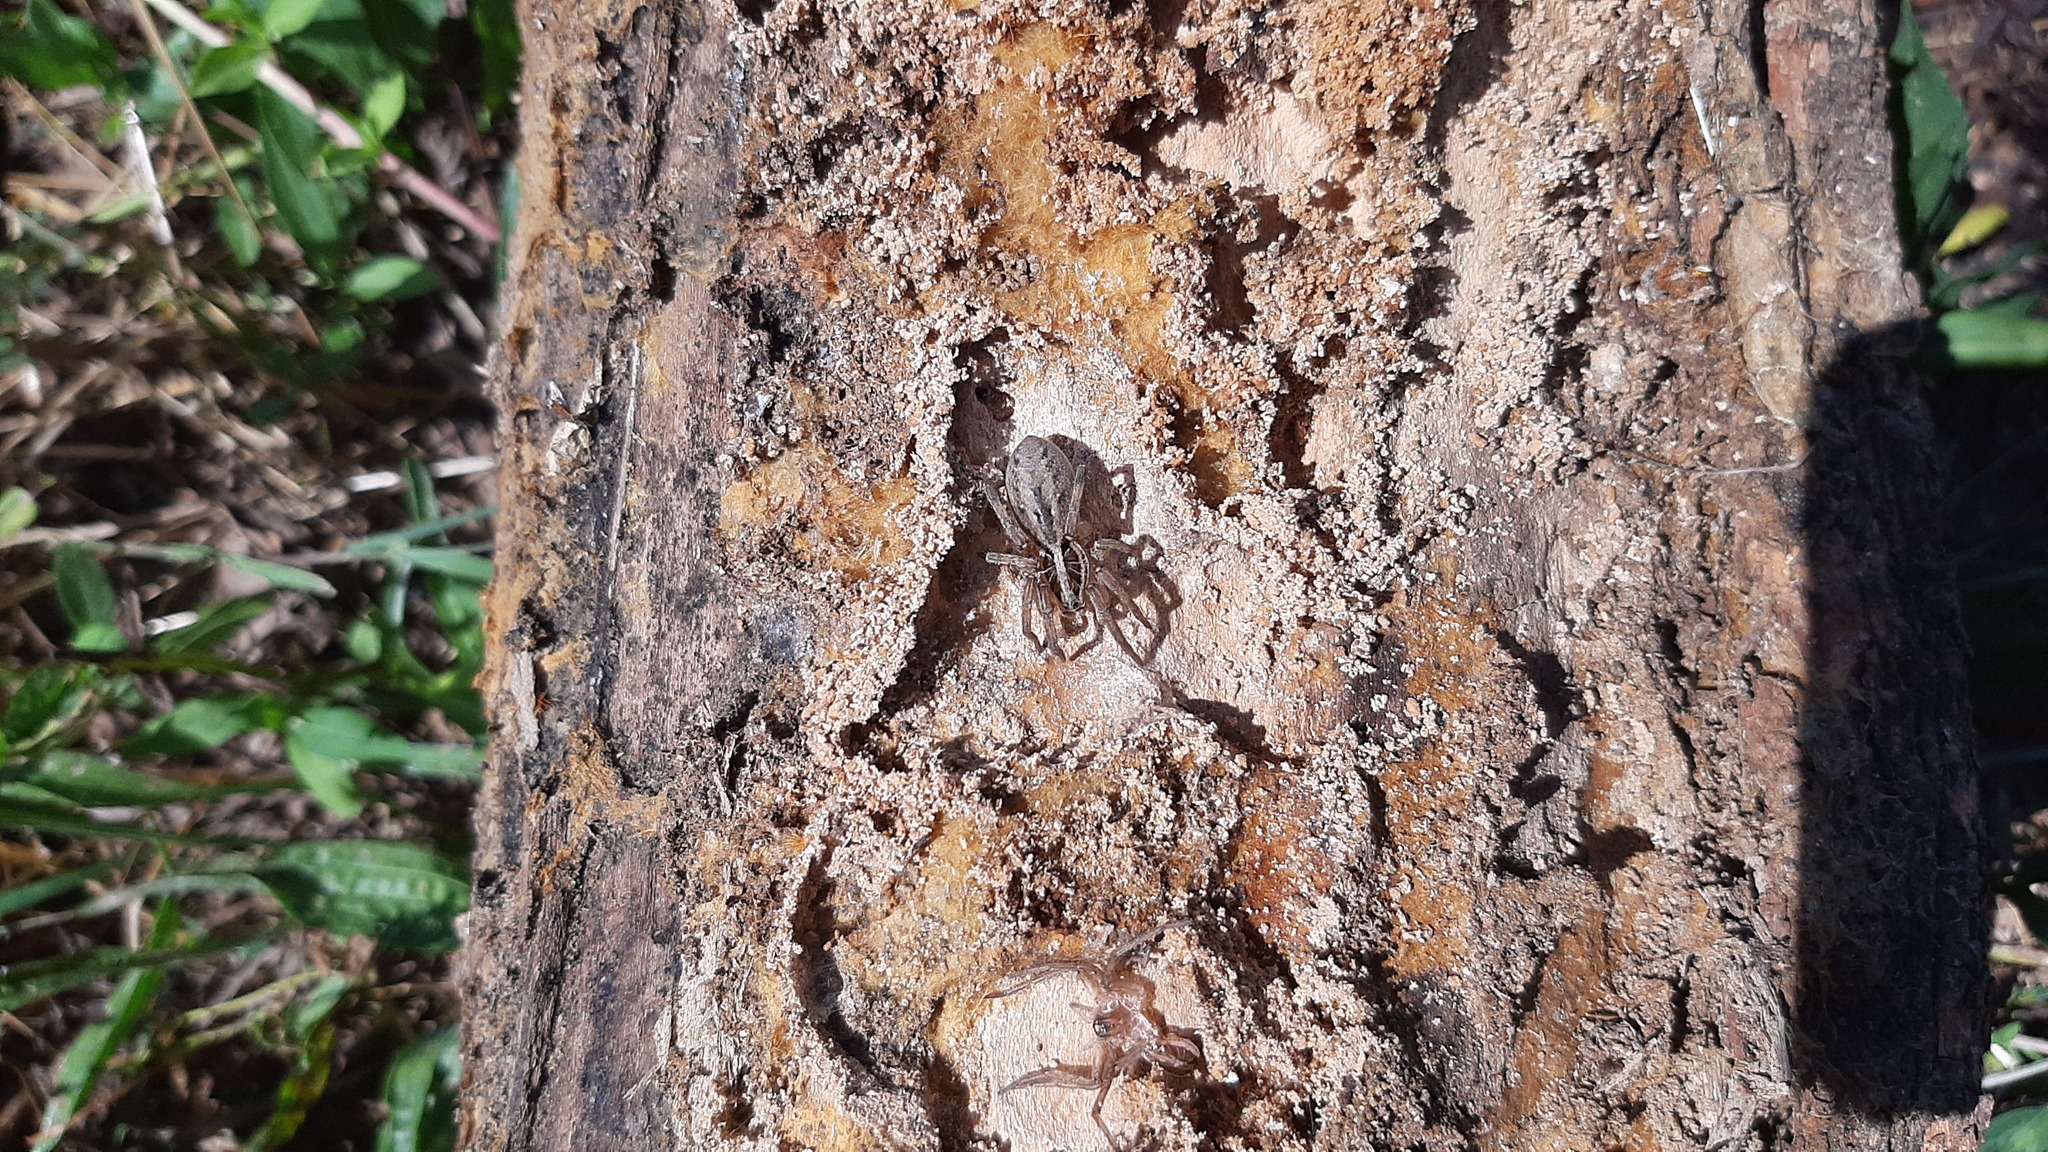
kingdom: Animalia
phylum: Arthropoda
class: Arachnida
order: Araneae
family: Lycosidae
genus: Hogna
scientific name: Hogna radiata
